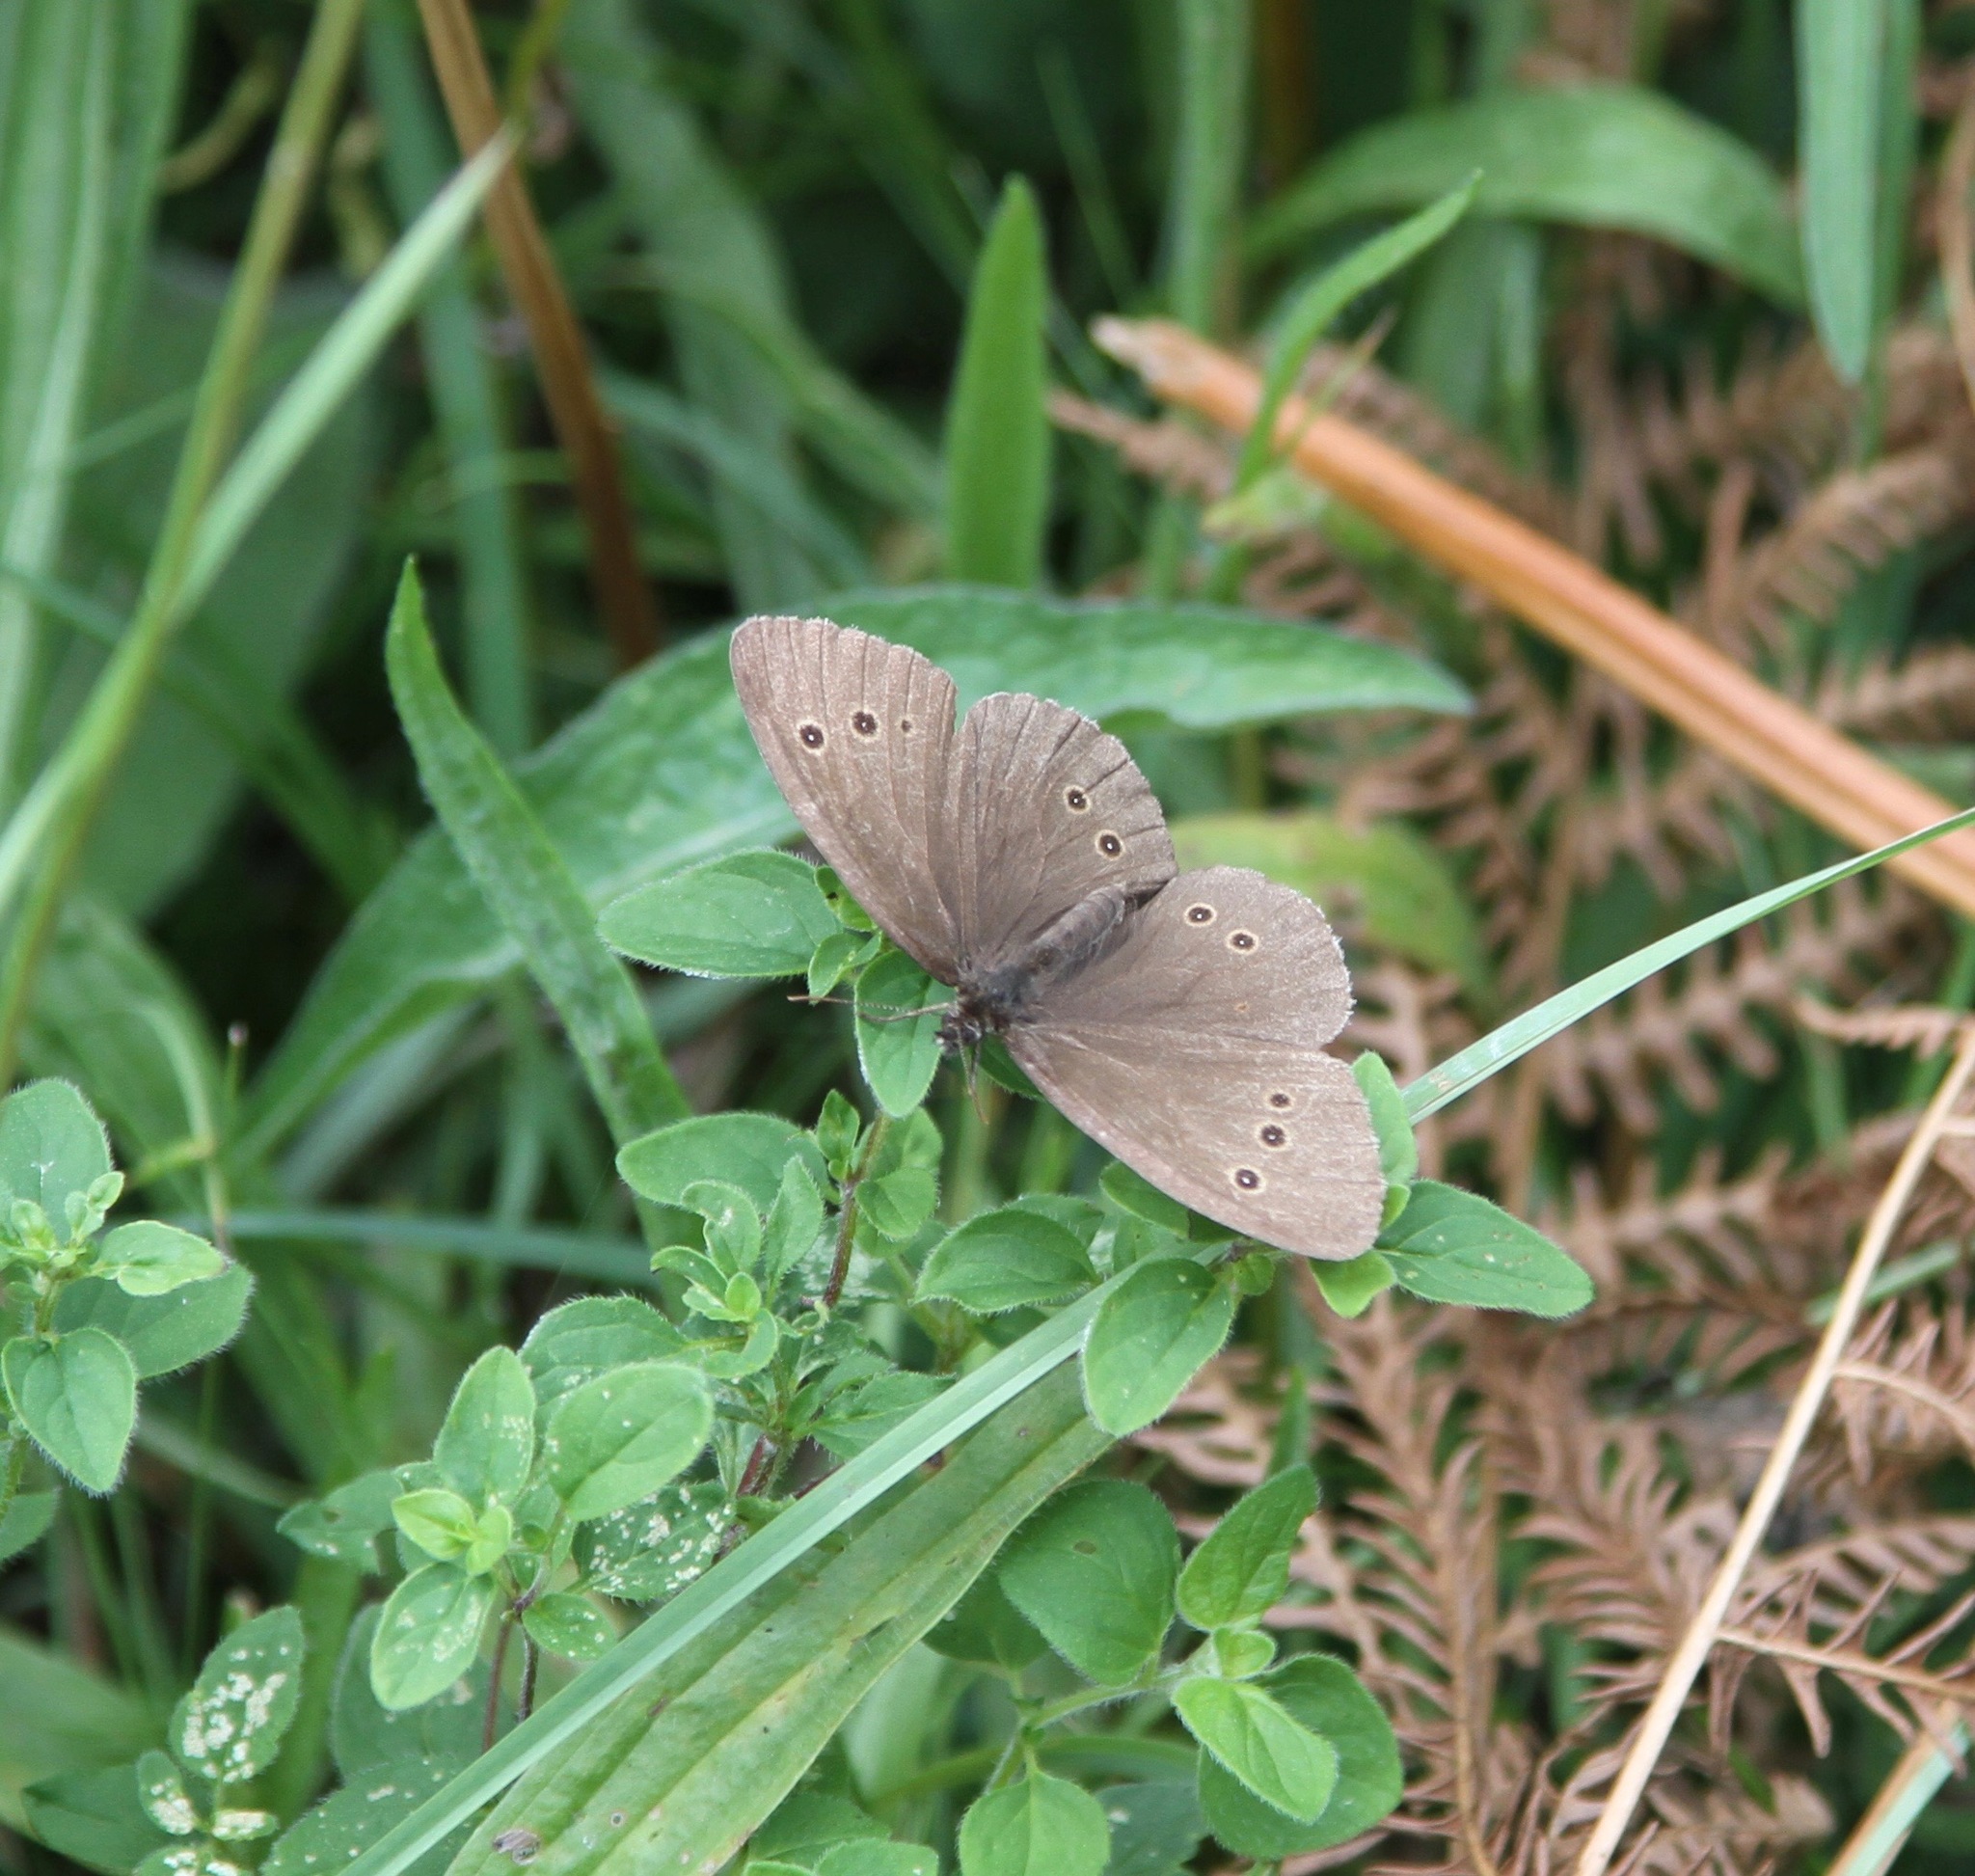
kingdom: Animalia
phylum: Arthropoda
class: Insecta
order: Lepidoptera
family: Nymphalidae
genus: Aphantopus
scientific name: Aphantopus hyperantus
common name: Ringlet
